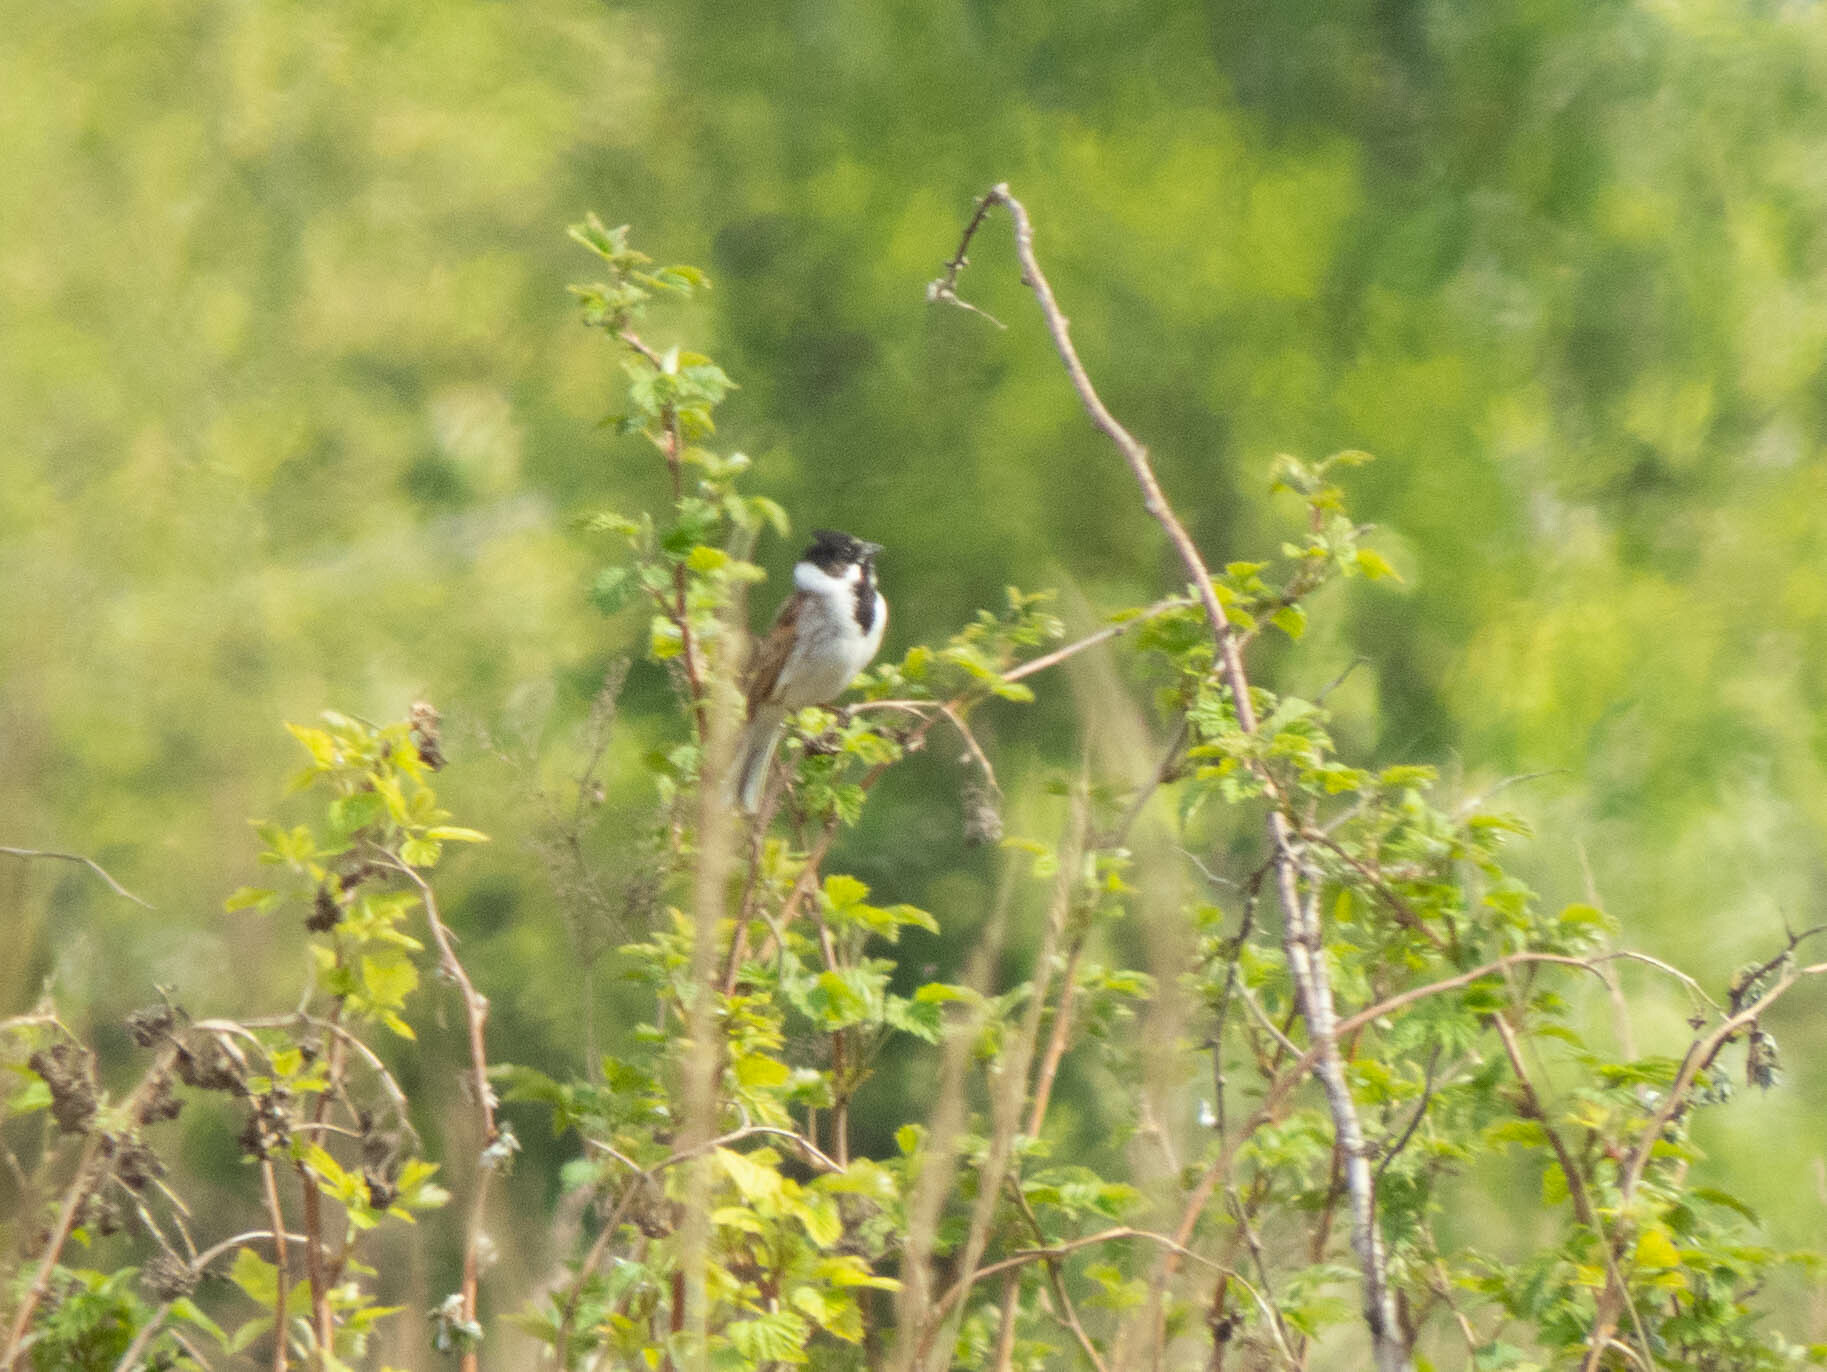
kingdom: Animalia
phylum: Chordata
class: Aves
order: Passeriformes
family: Emberizidae
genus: Emberiza
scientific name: Emberiza schoeniclus
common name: Reed bunting
